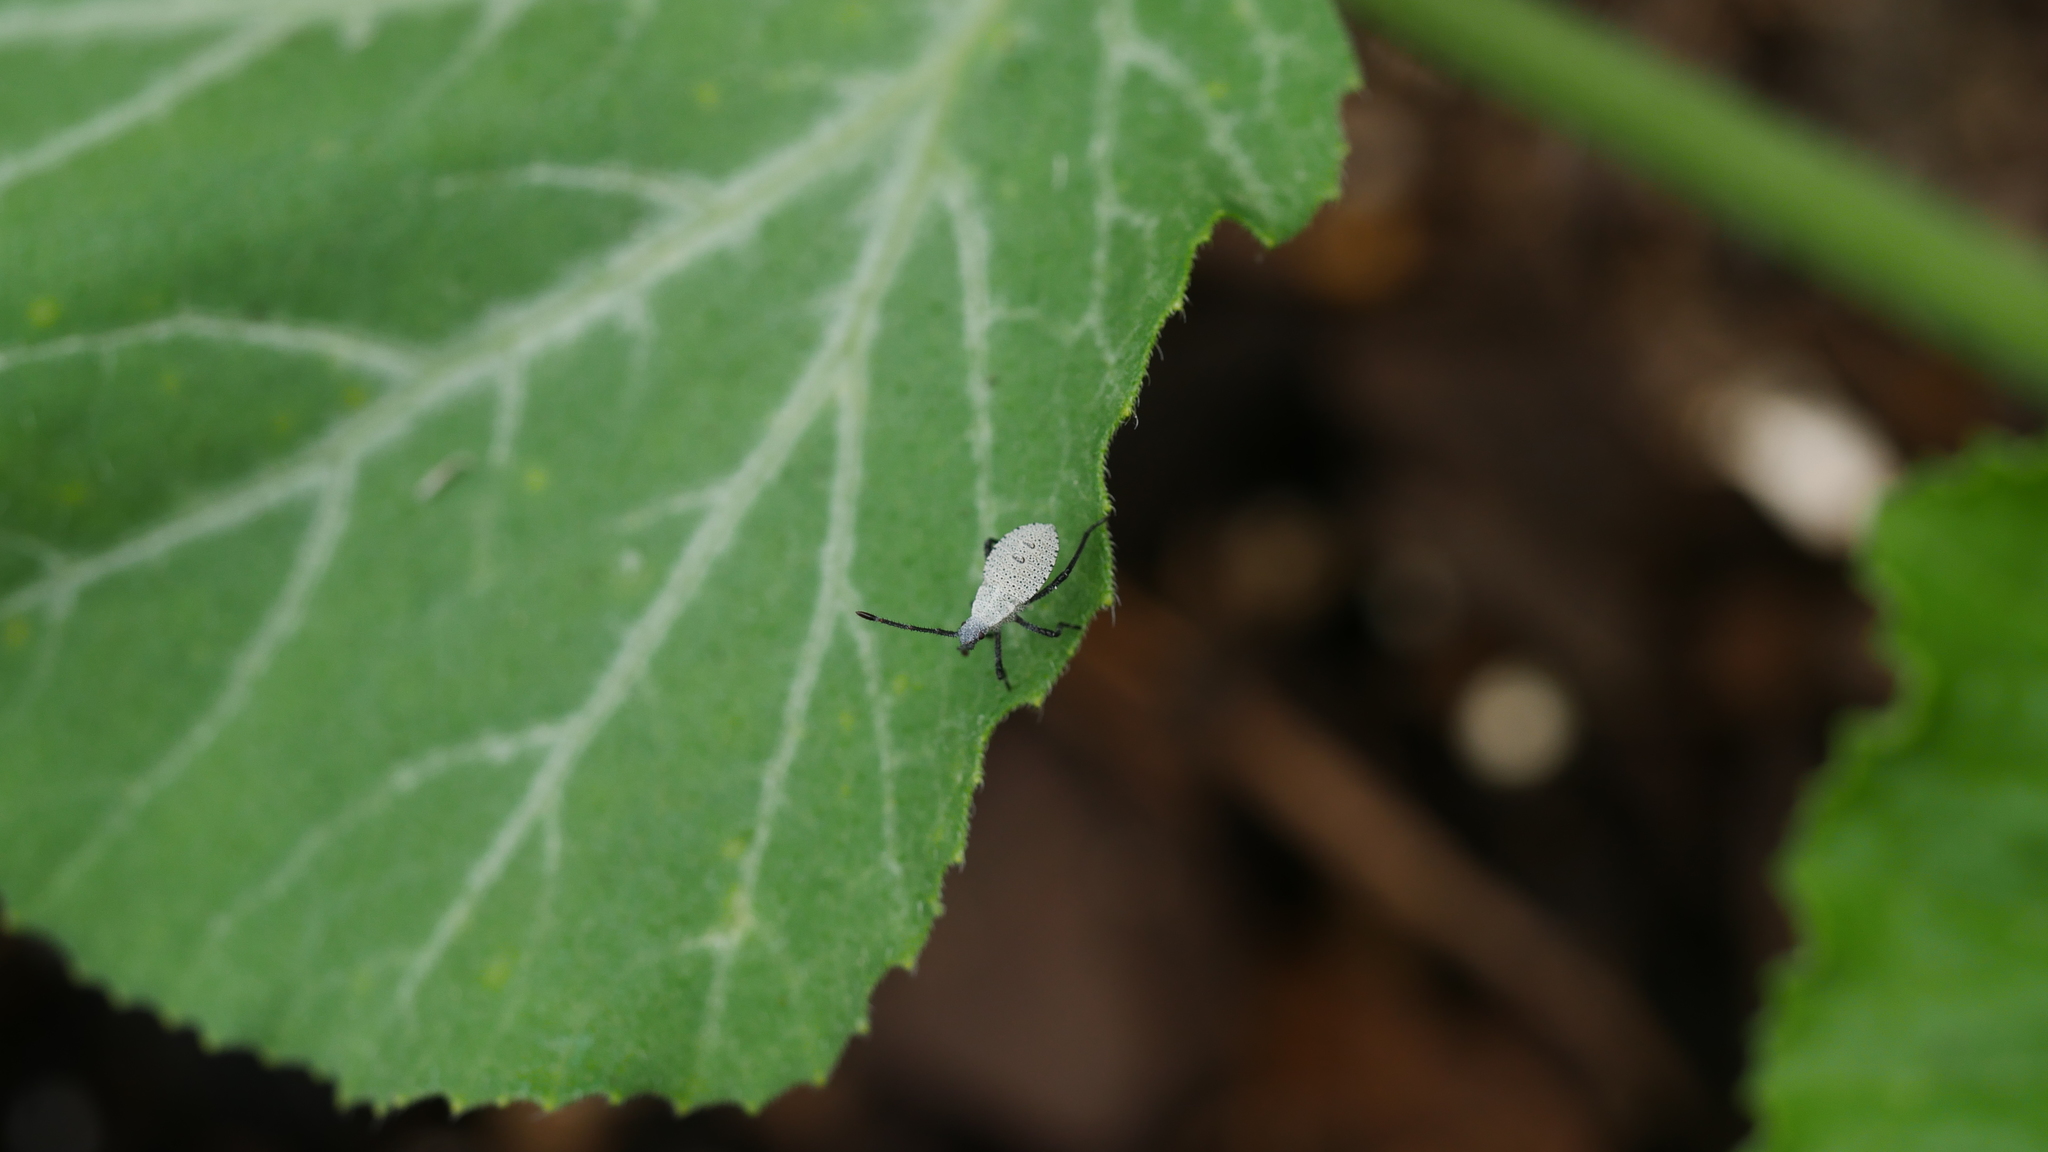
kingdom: Animalia
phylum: Arthropoda
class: Insecta
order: Hemiptera
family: Coreidae
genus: Anasa
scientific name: Anasa tristis
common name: Squash bug
